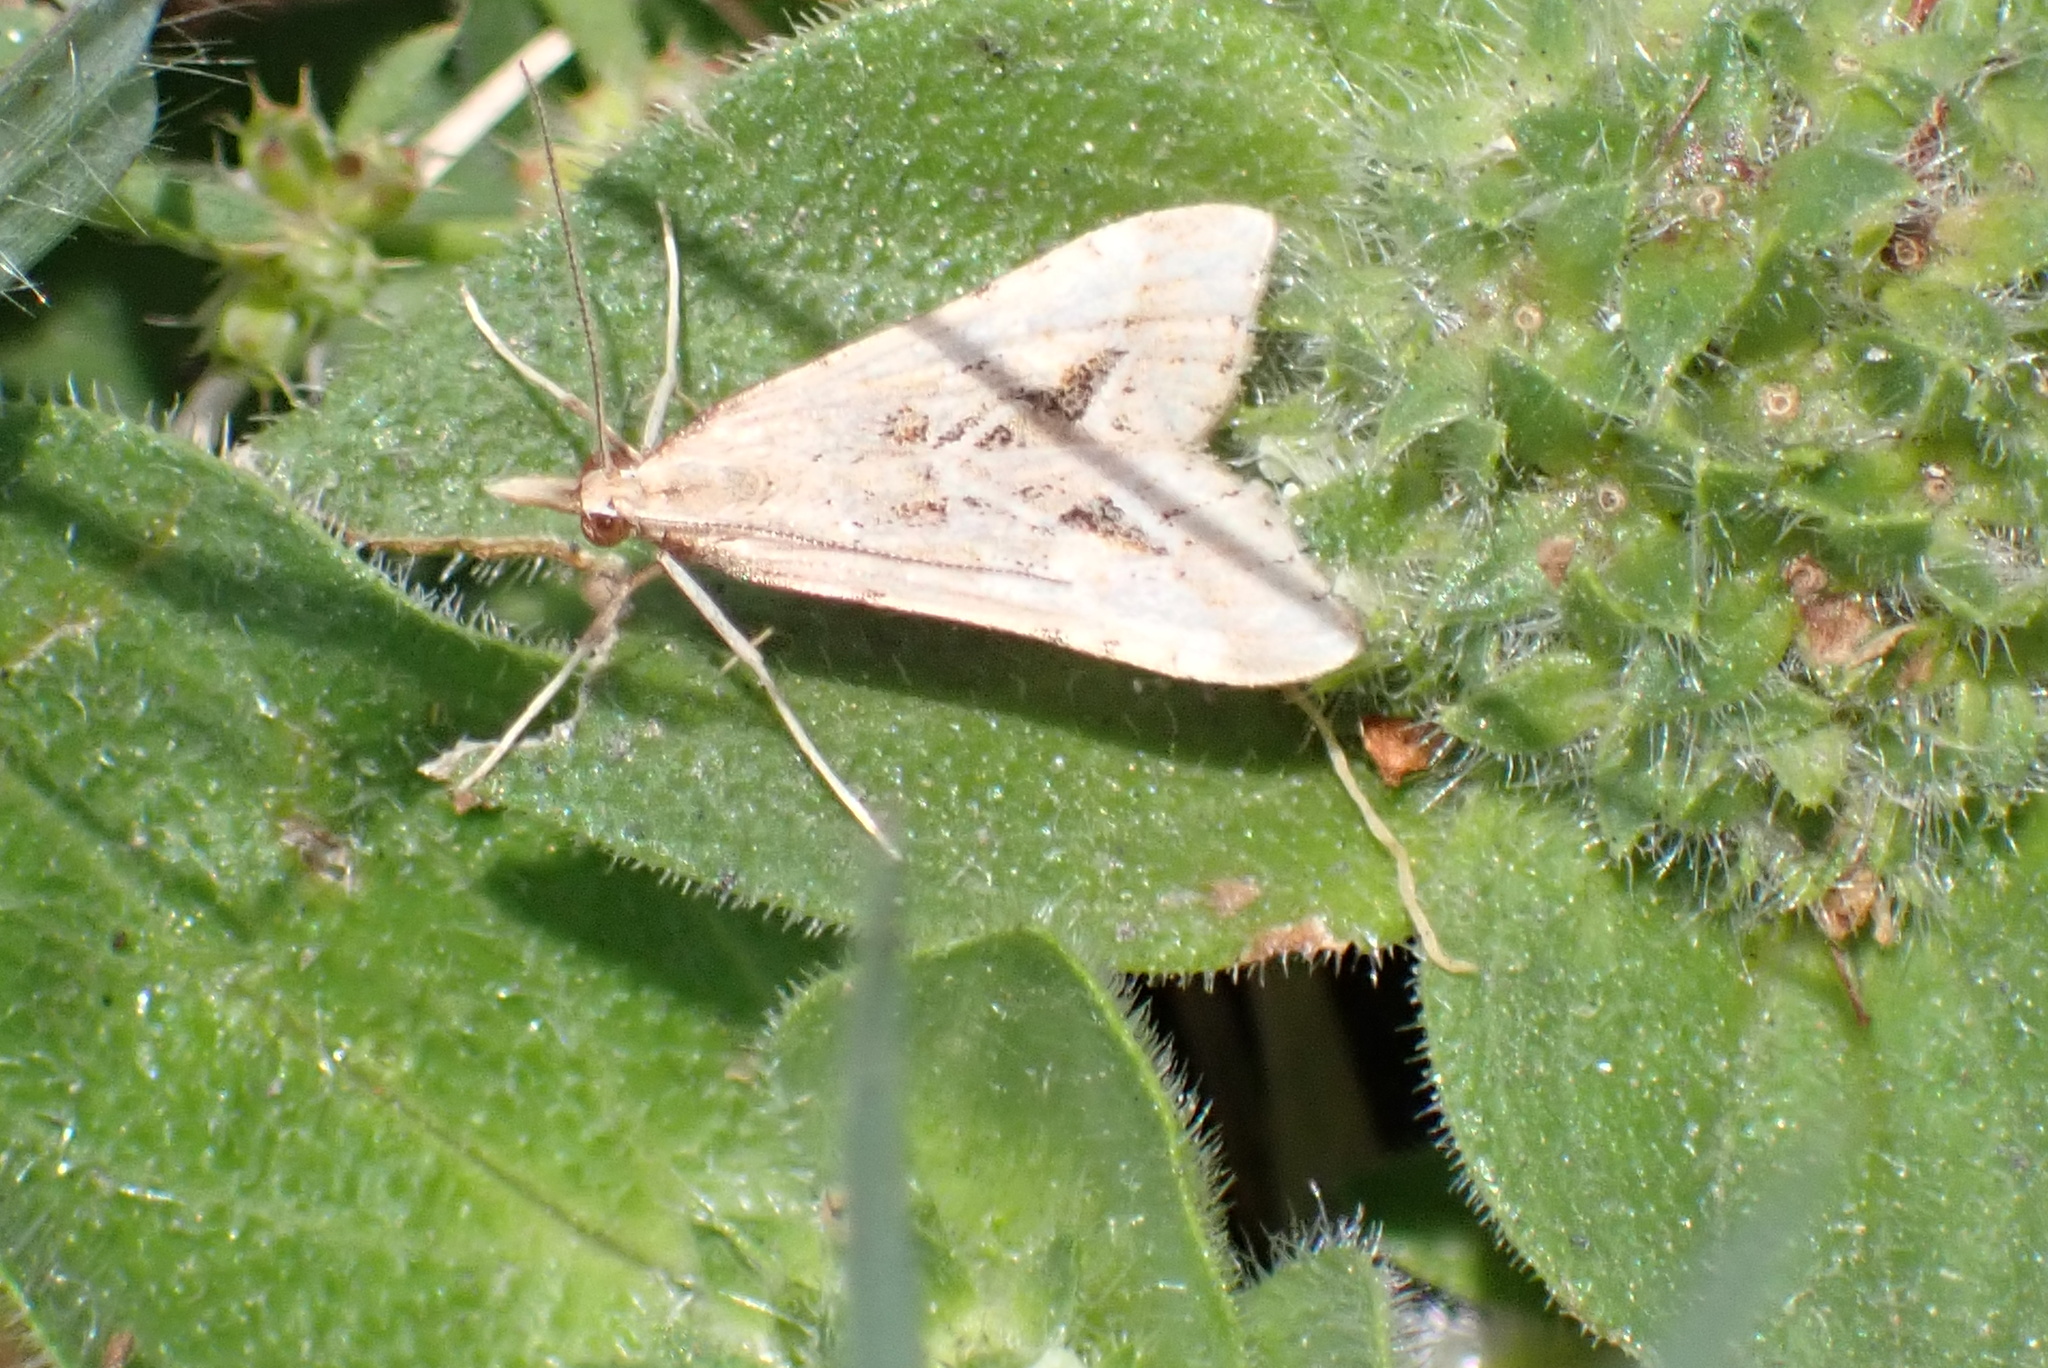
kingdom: Animalia
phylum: Arthropoda
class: Insecta
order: Lepidoptera
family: Crambidae
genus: Diasemia
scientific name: Diasemia monostigma
